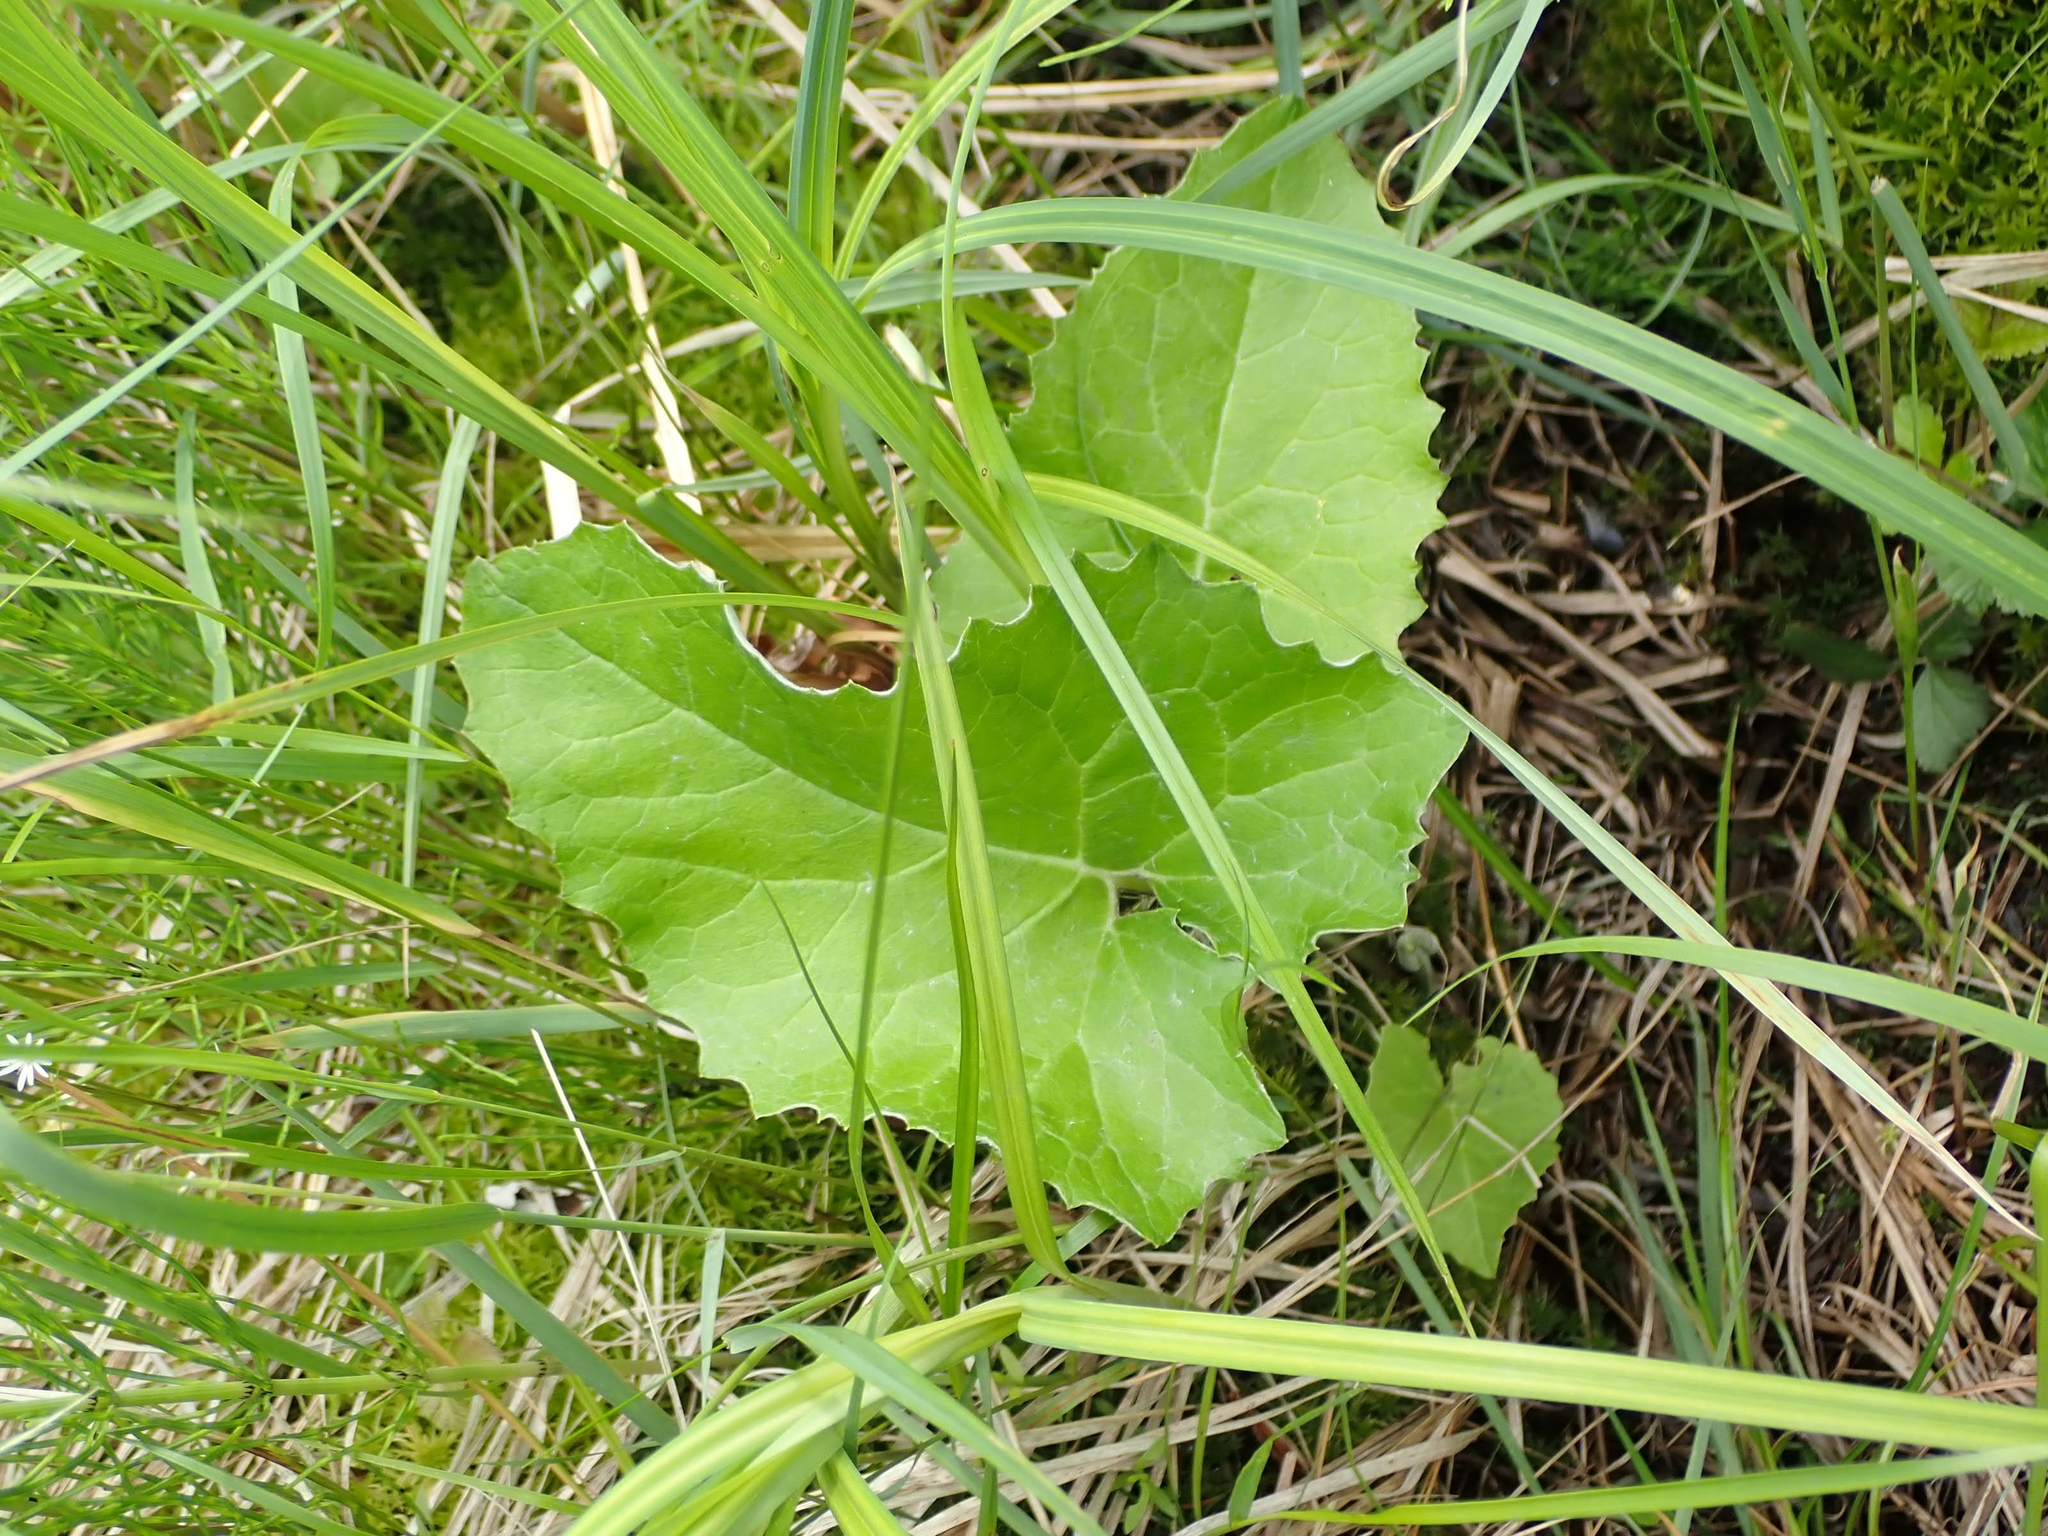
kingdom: Plantae
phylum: Tracheophyta
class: Magnoliopsida
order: Asterales
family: Asteraceae
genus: Petasites
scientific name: Petasites frigidus
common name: Arctic butterbur
